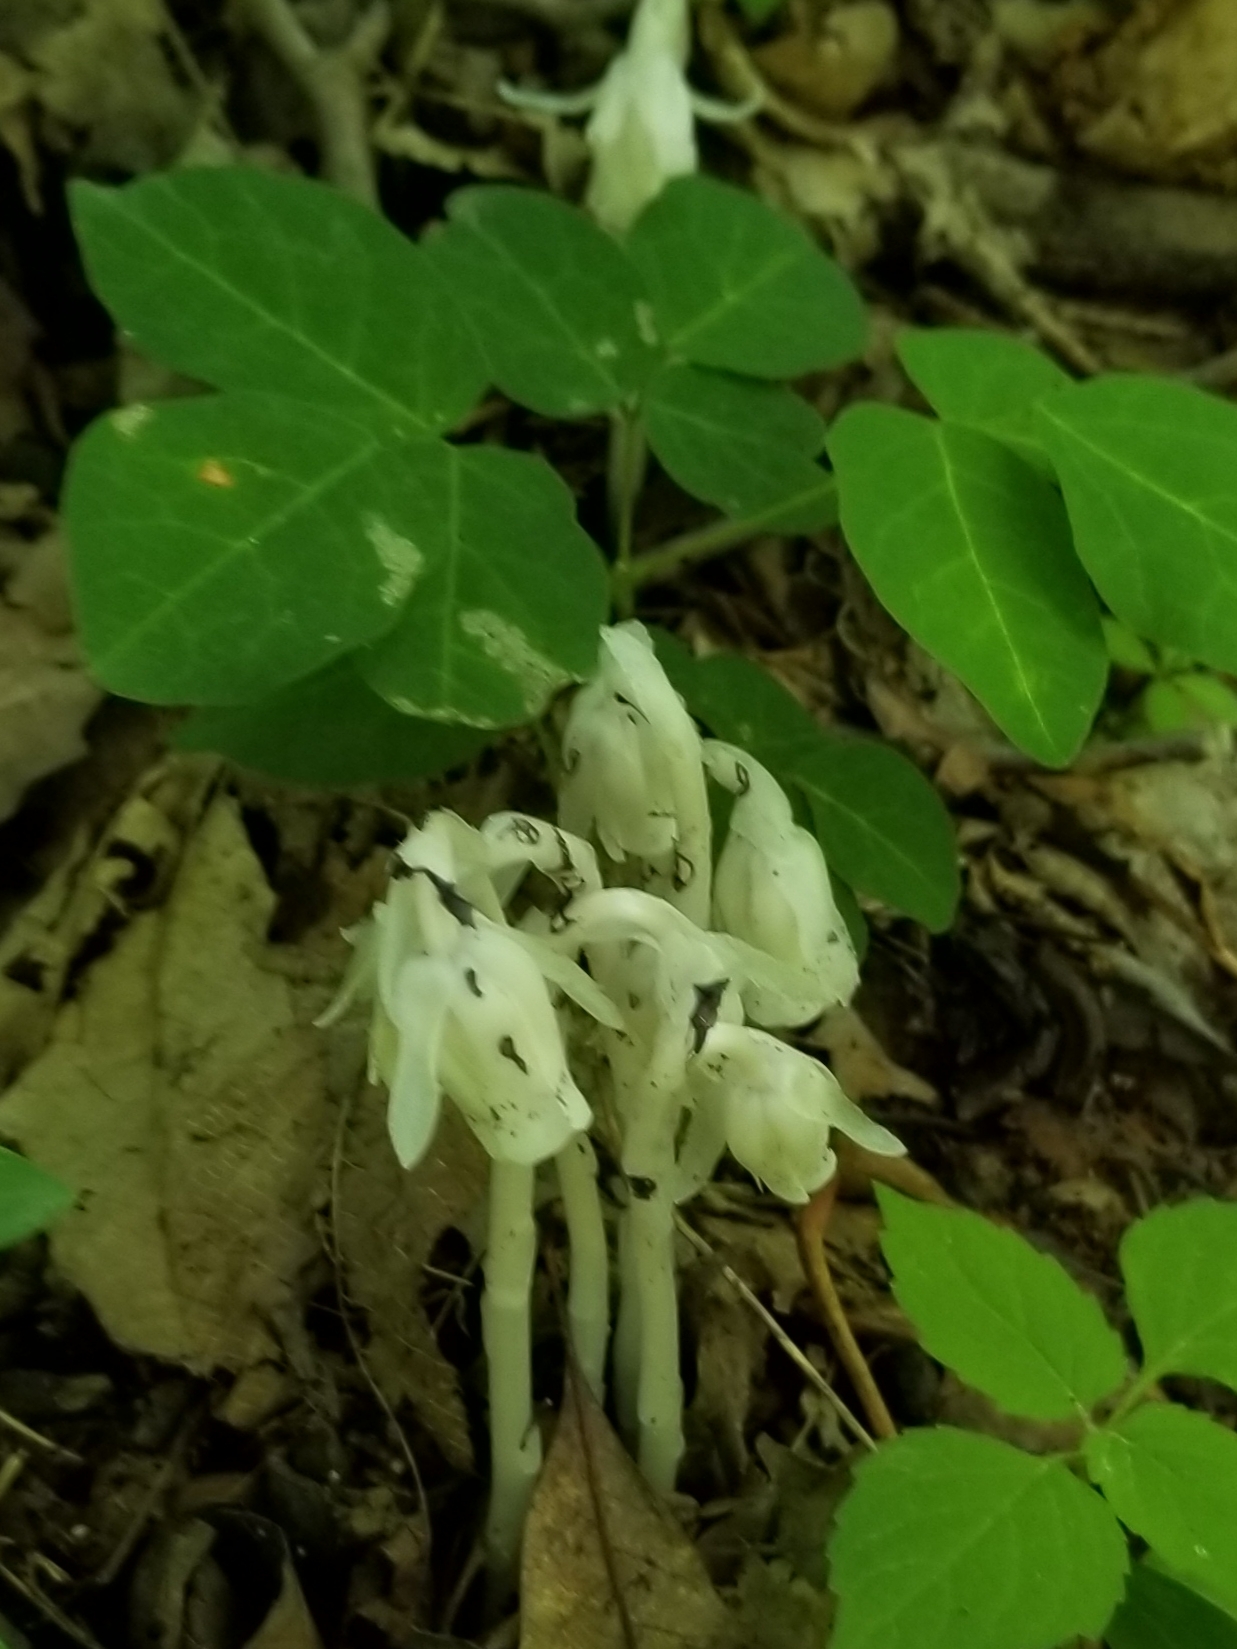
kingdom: Plantae
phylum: Tracheophyta
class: Magnoliopsida
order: Ericales
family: Ericaceae
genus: Monotropa
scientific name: Monotropa uniflora
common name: Convulsion root
